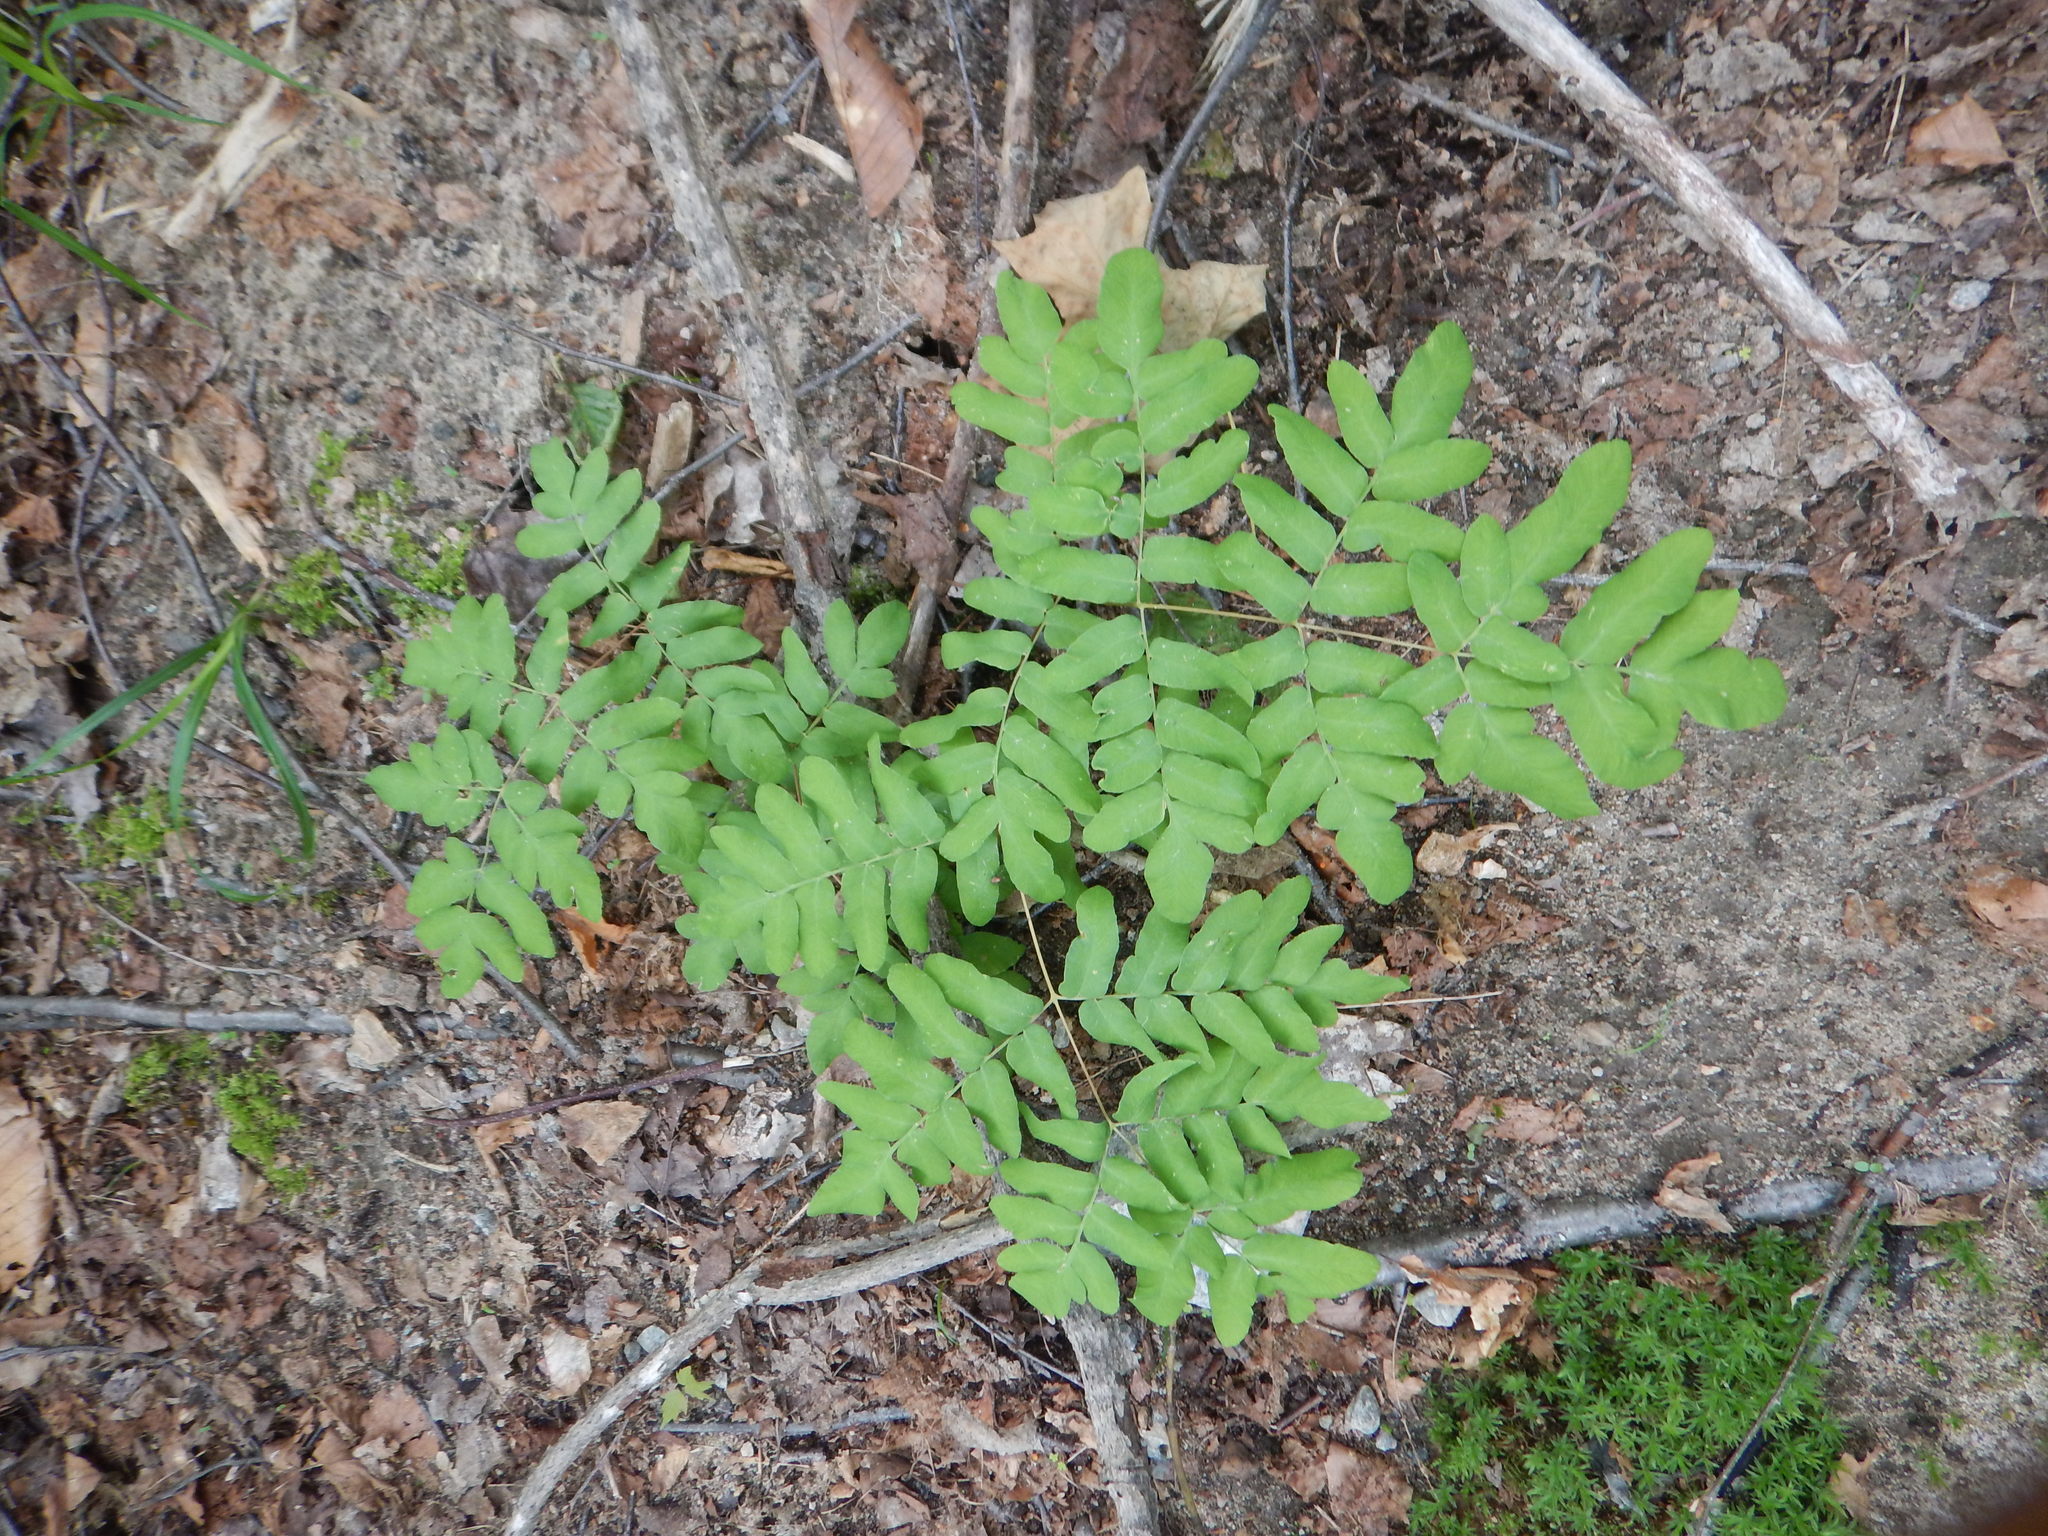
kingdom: Plantae
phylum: Tracheophyta
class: Polypodiopsida
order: Osmundales
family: Osmundaceae
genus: Osmunda
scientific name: Osmunda spectabilis
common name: American royal fern
